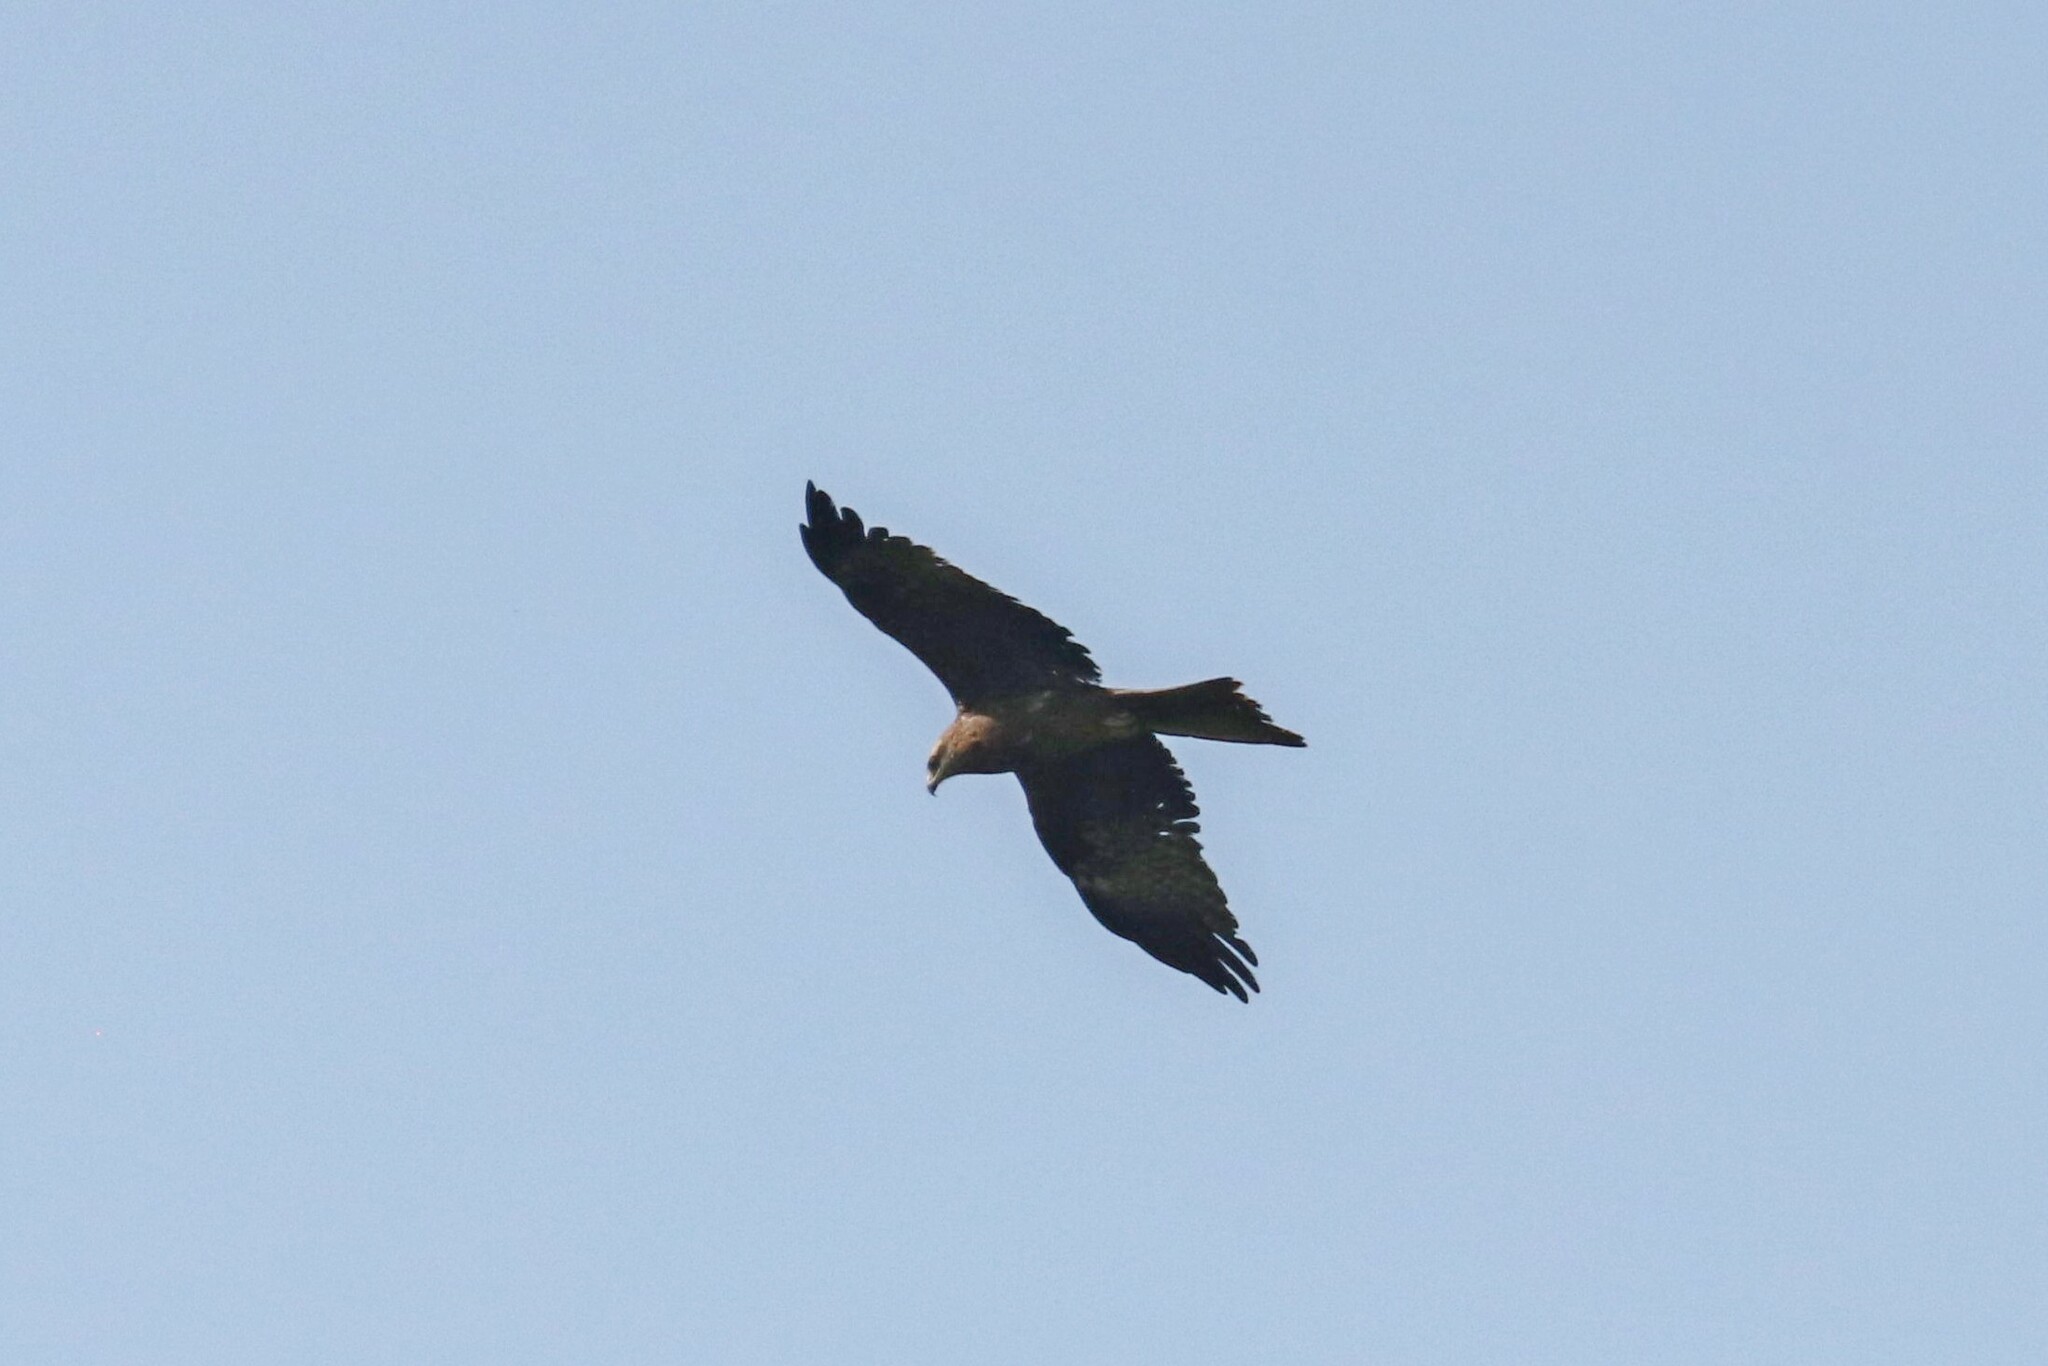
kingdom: Animalia
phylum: Chordata
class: Aves
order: Accipitriformes
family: Accipitridae
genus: Milvus
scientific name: Milvus migrans
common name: Black kite
